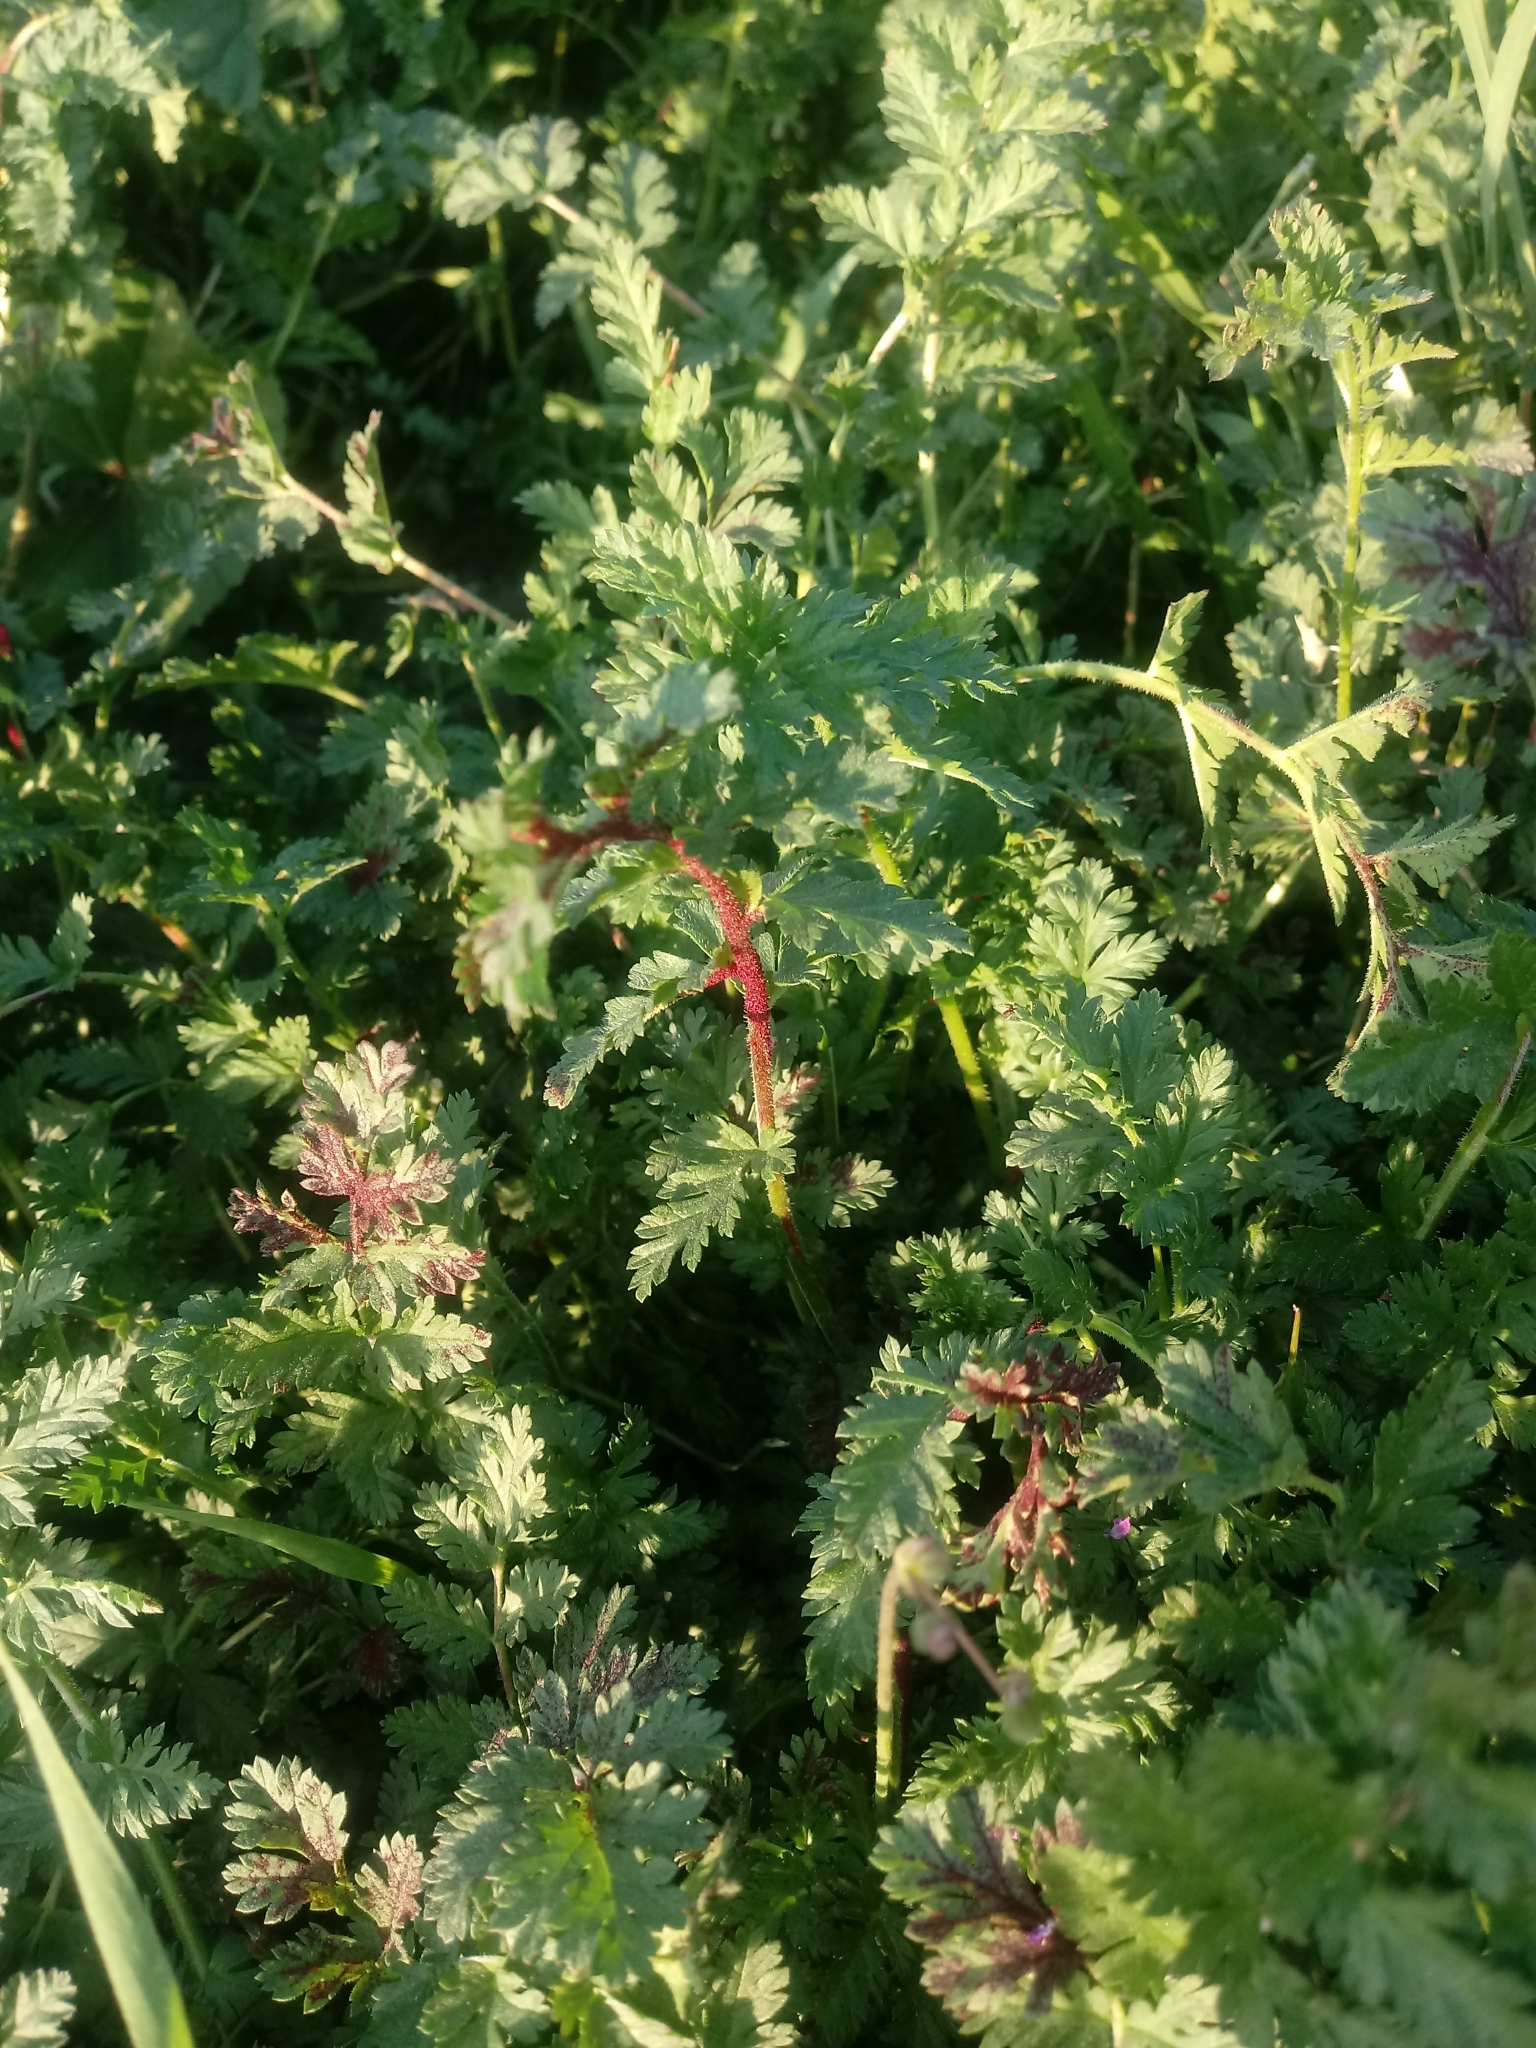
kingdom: Plantae
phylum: Tracheophyta
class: Magnoliopsida
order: Geraniales
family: Geraniaceae
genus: Erodium
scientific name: Erodium cicutarium
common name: Common stork's-bill
